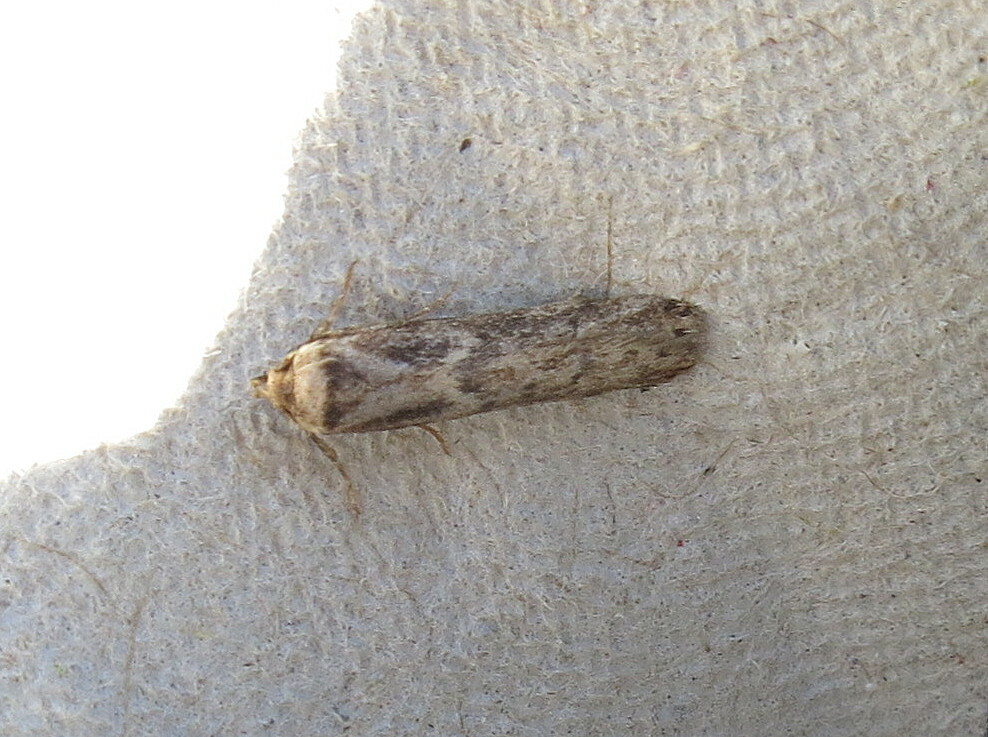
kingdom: Animalia
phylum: Arthropoda
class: Insecta
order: Lepidoptera
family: Blastobasidae
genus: Blastobasis
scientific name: Blastobasis adustella
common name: Dingy dowd
